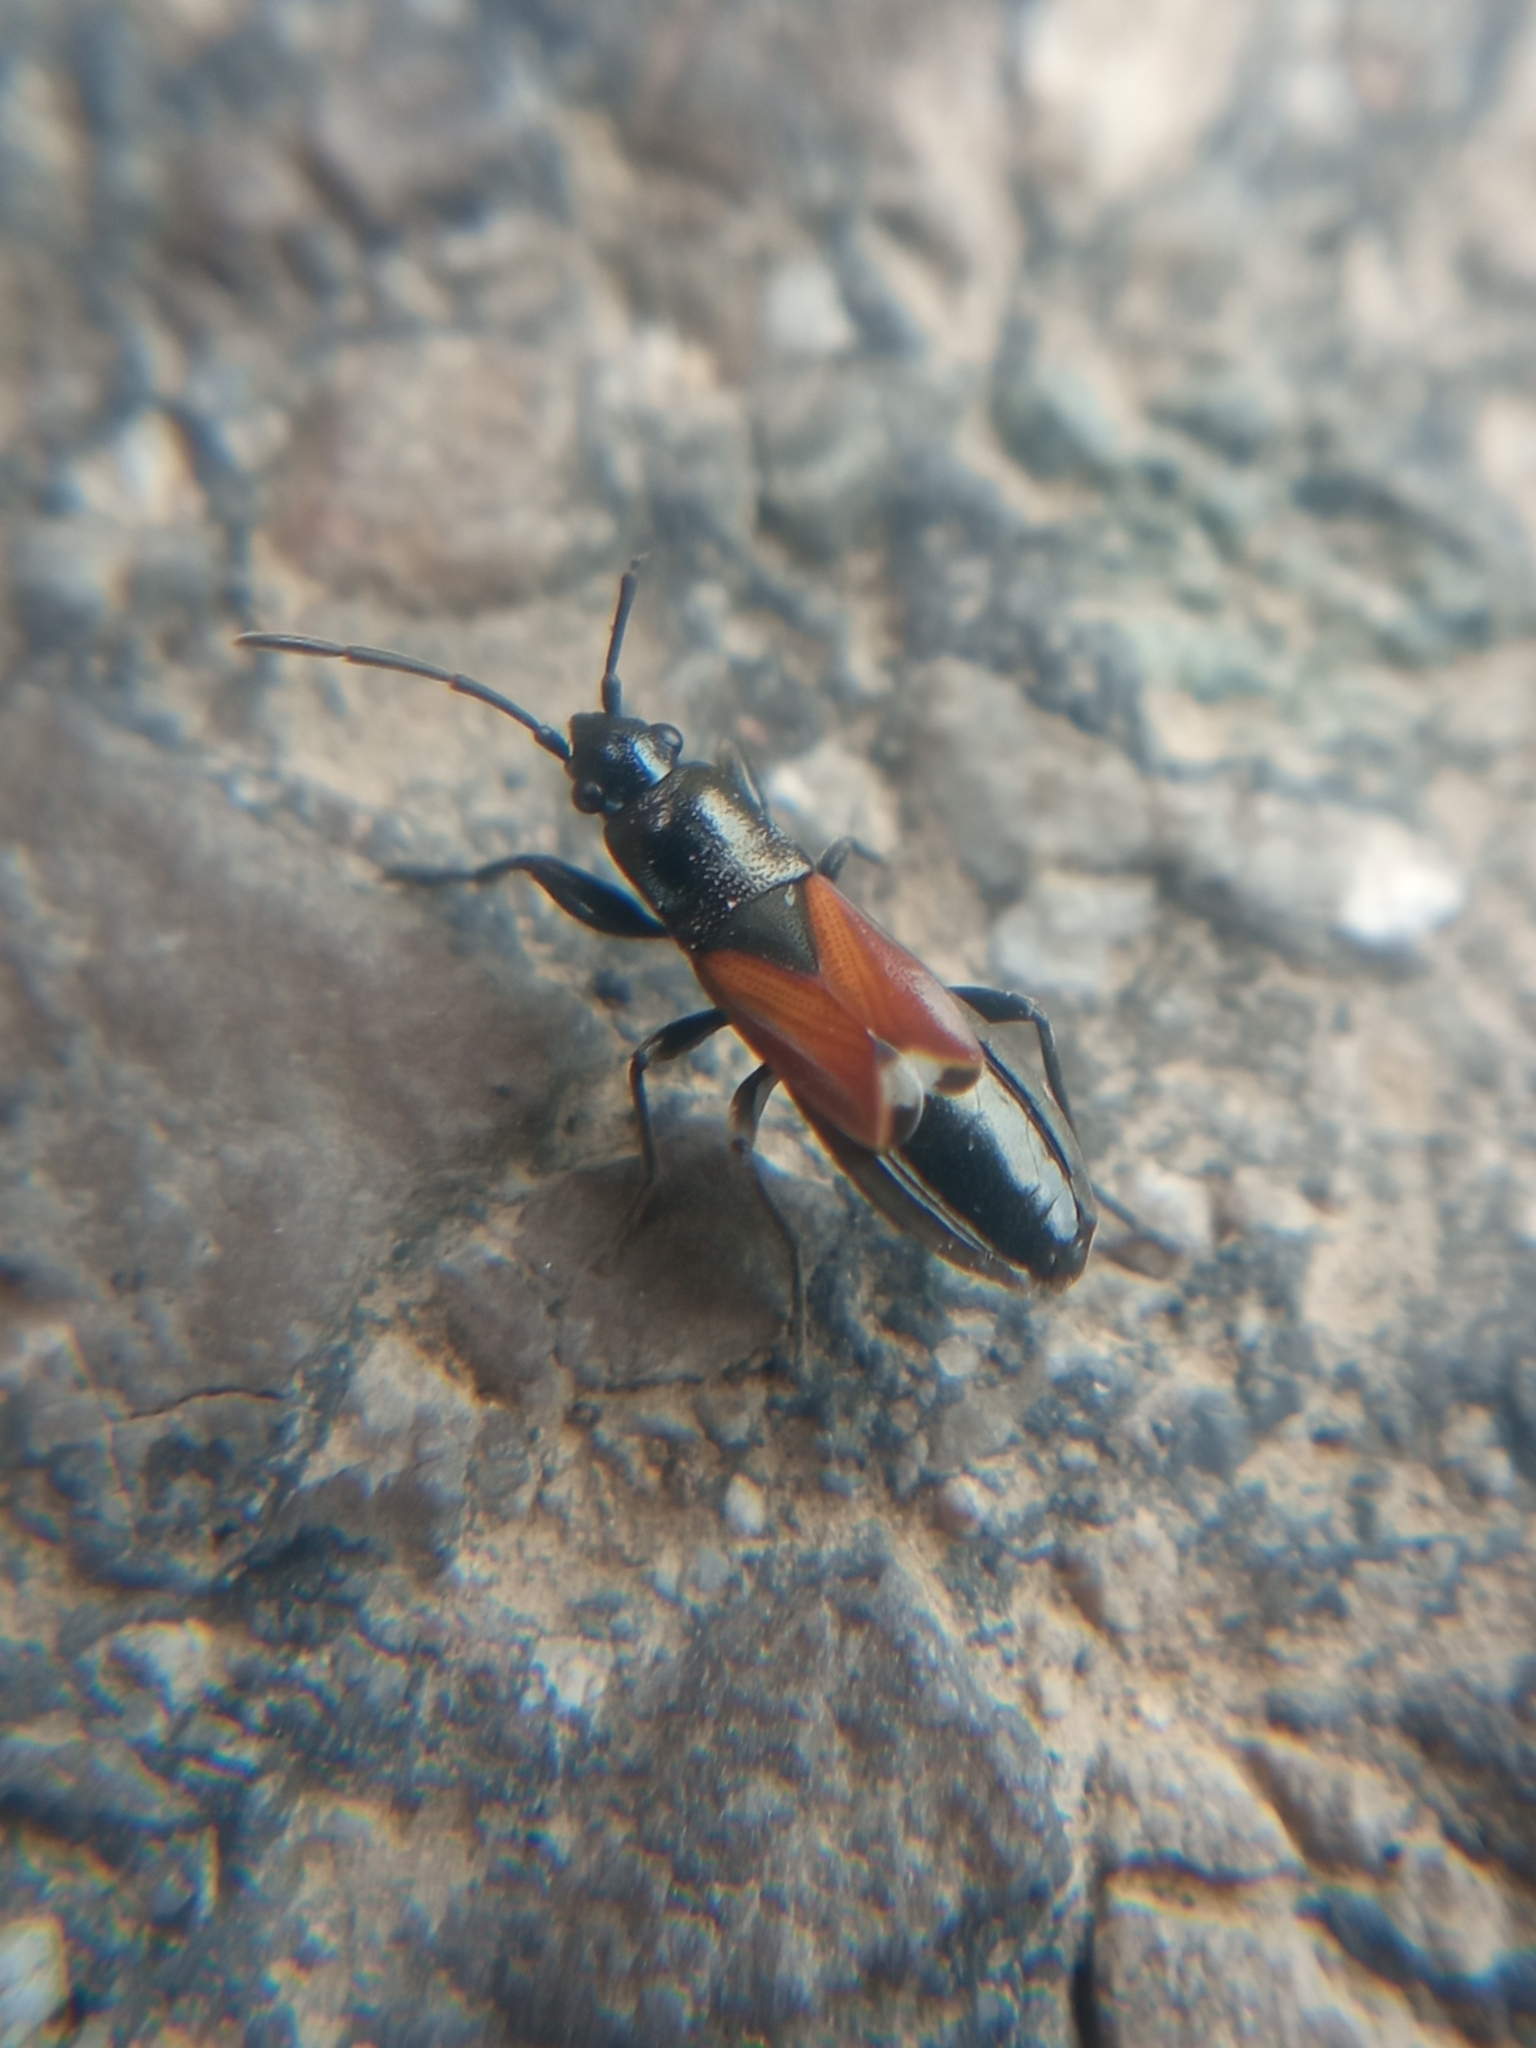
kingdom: Animalia
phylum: Arthropoda
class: Insecta
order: Hemiptera
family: Rhyparochromidae
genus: Pterotmetus
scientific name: Pterotmetus staphyliniformis
